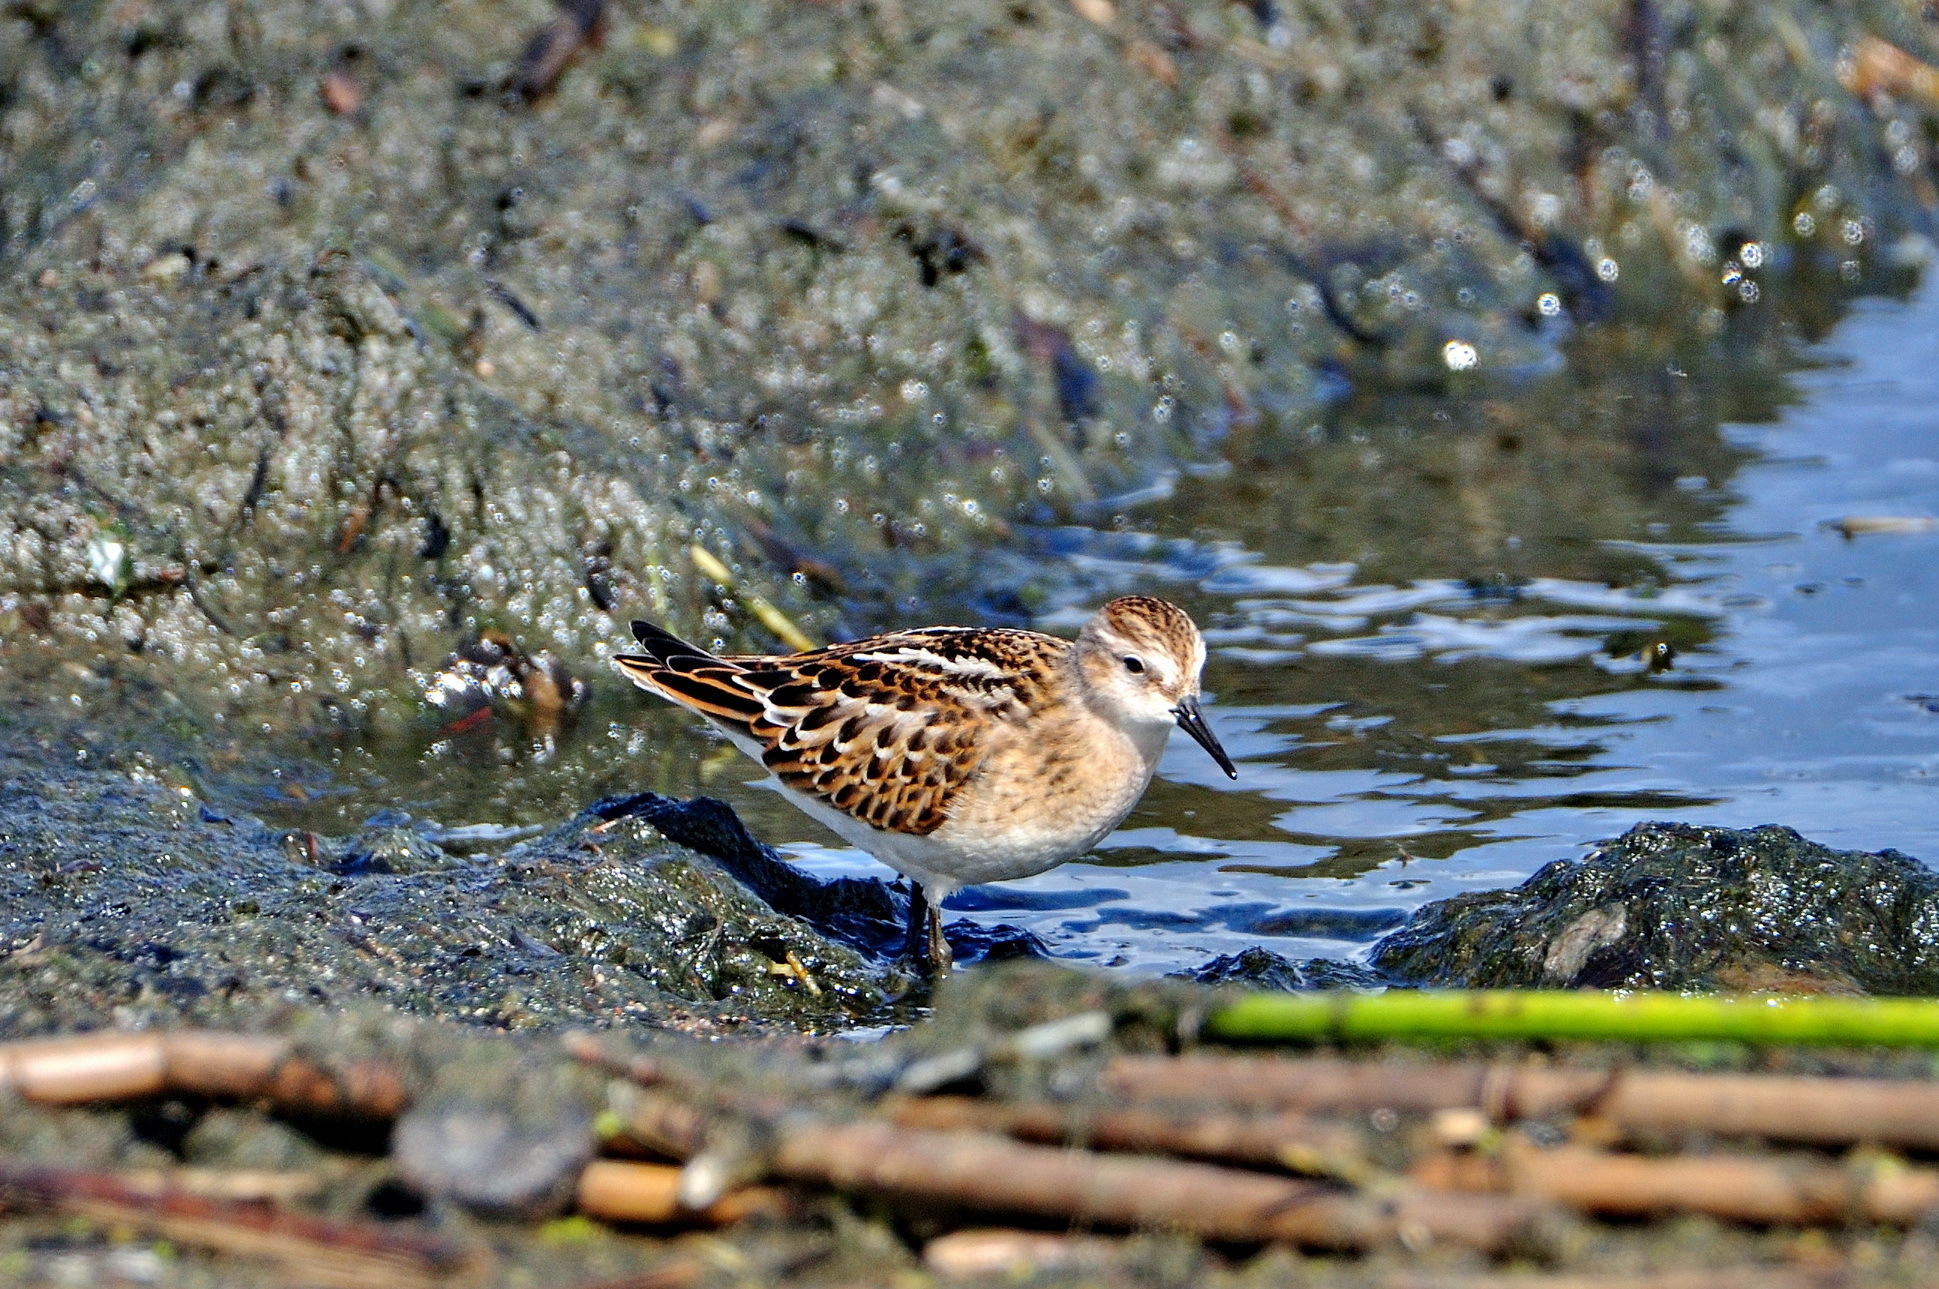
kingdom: Animalia
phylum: Chordata
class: Aves
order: Charadriiformes
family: Scolopacidae
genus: Calidris
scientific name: Calidris minuta
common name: Little stint
